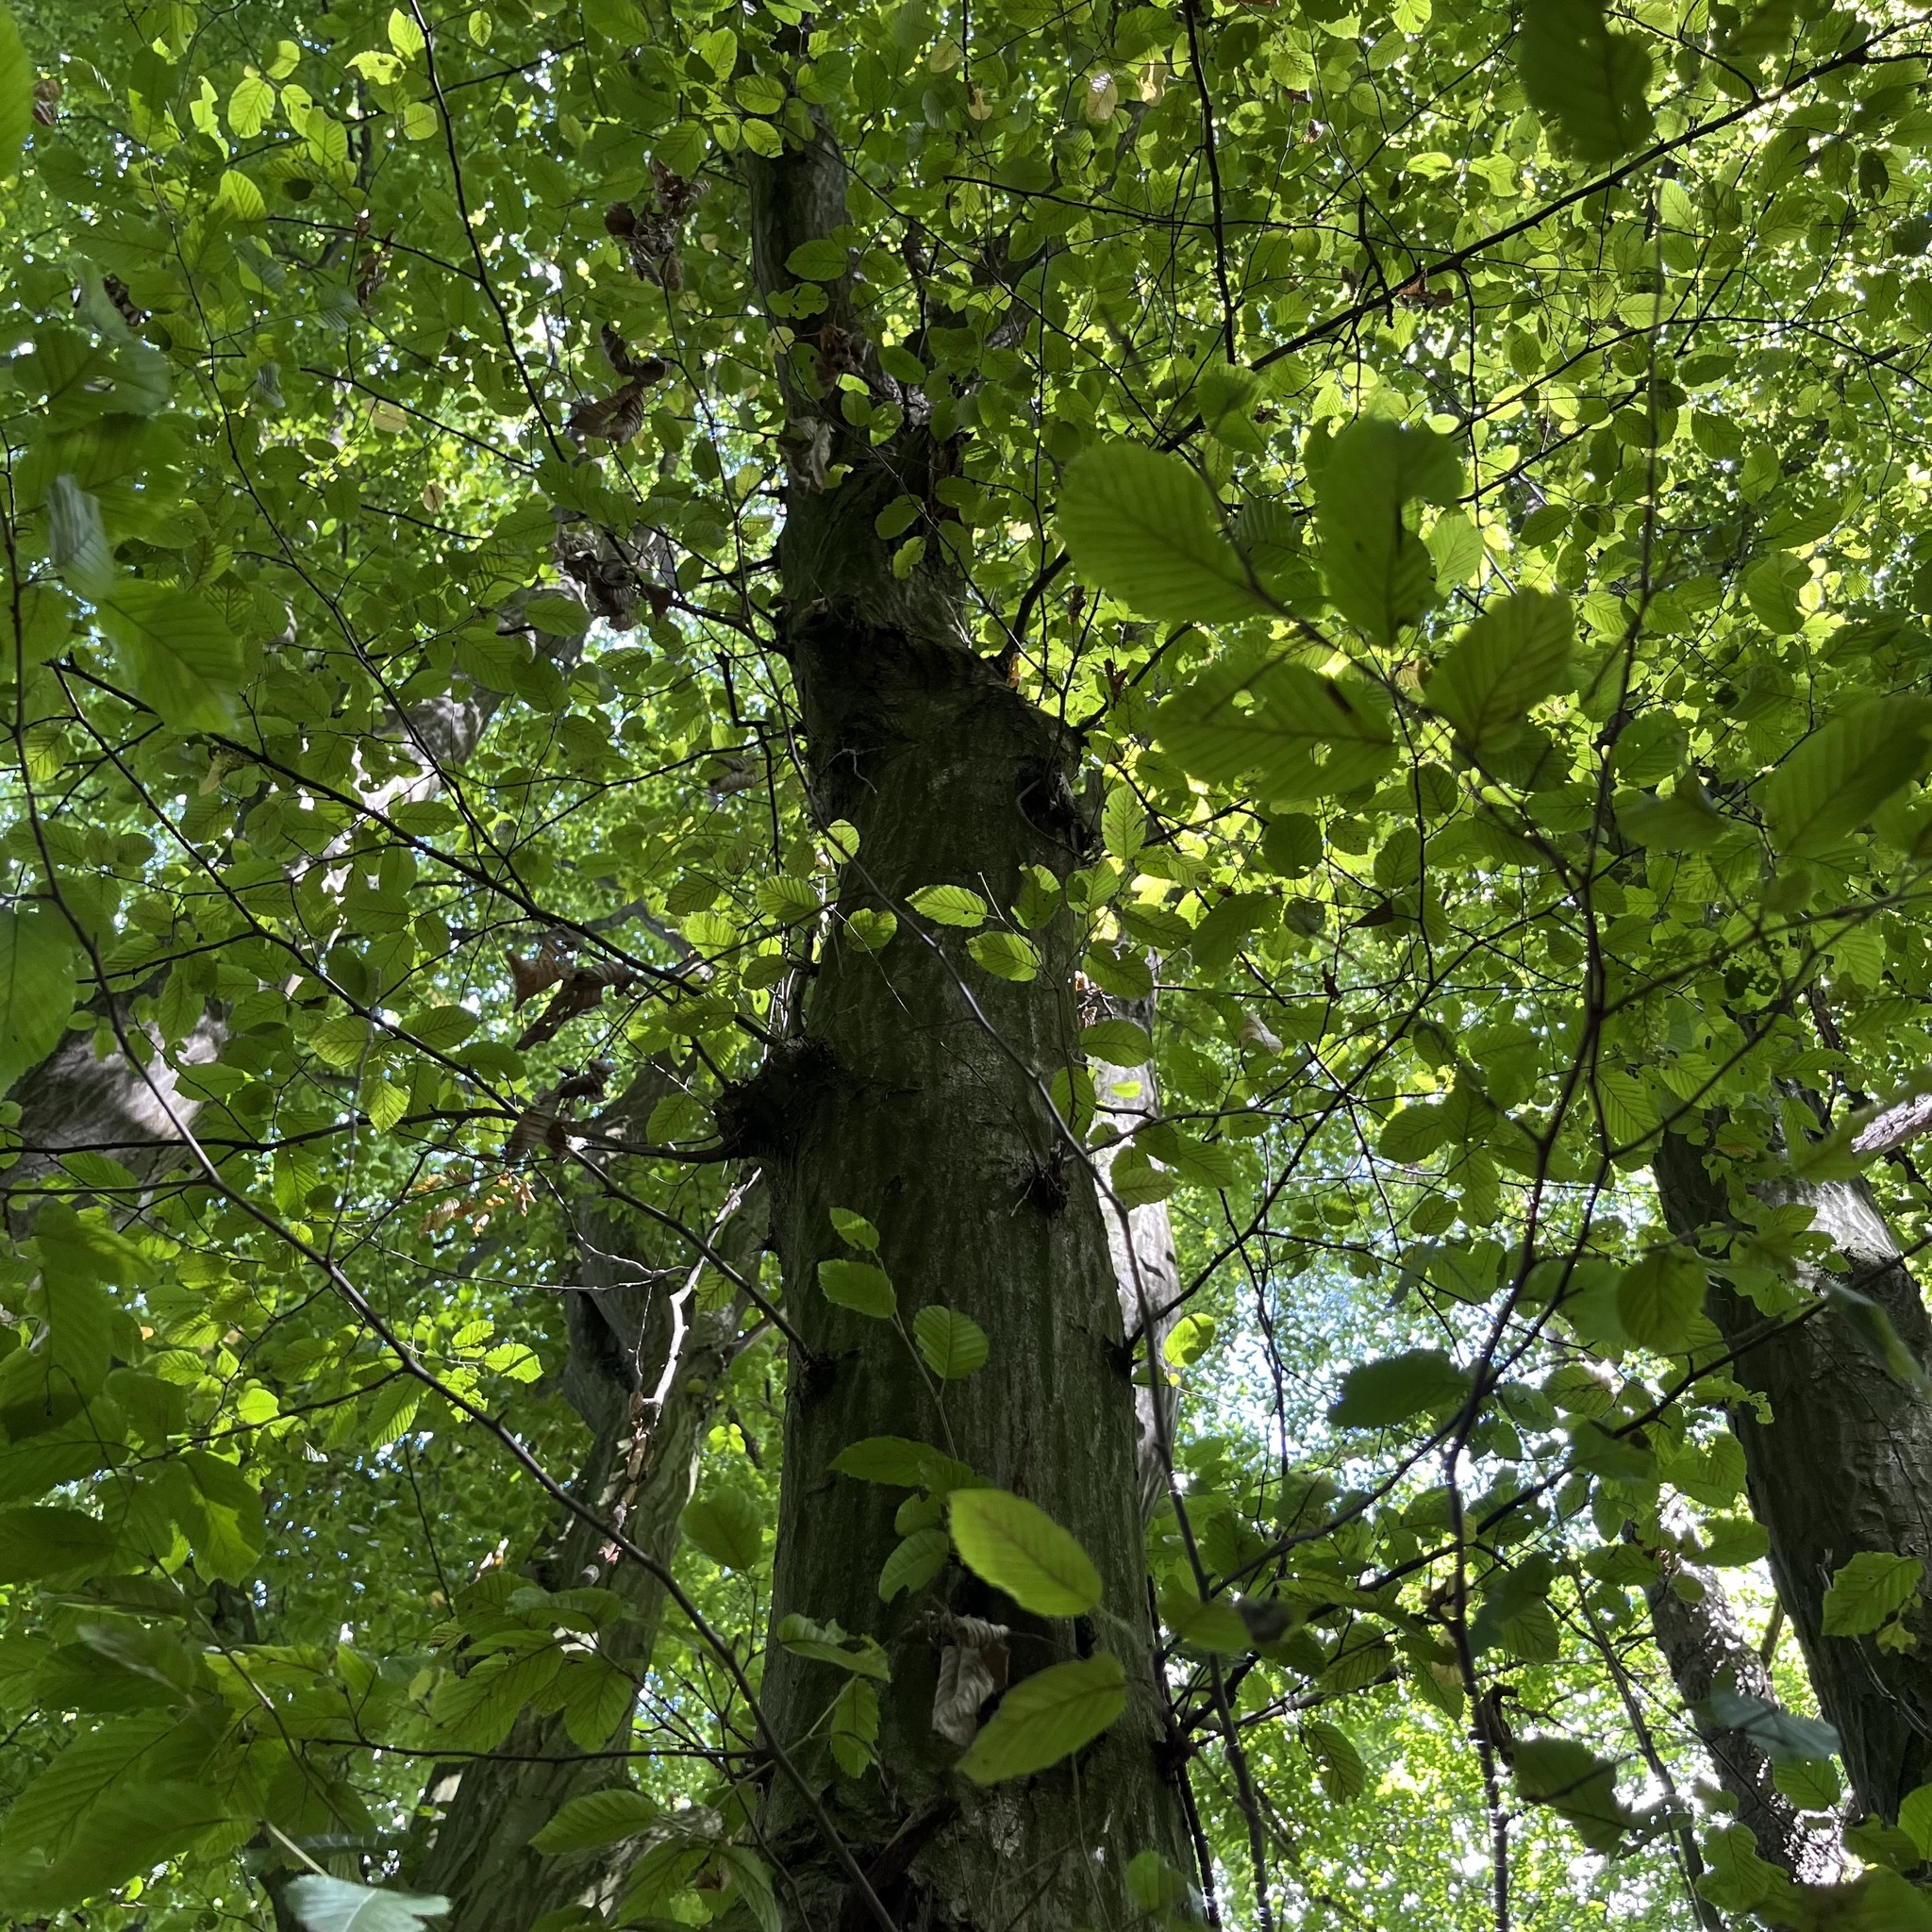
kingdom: Plantae
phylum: Tracheophyta
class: Magnoliopsida
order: Fagales
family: Betulaceae
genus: Carpinus
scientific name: Carpinus betulus
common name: Hornbeam
